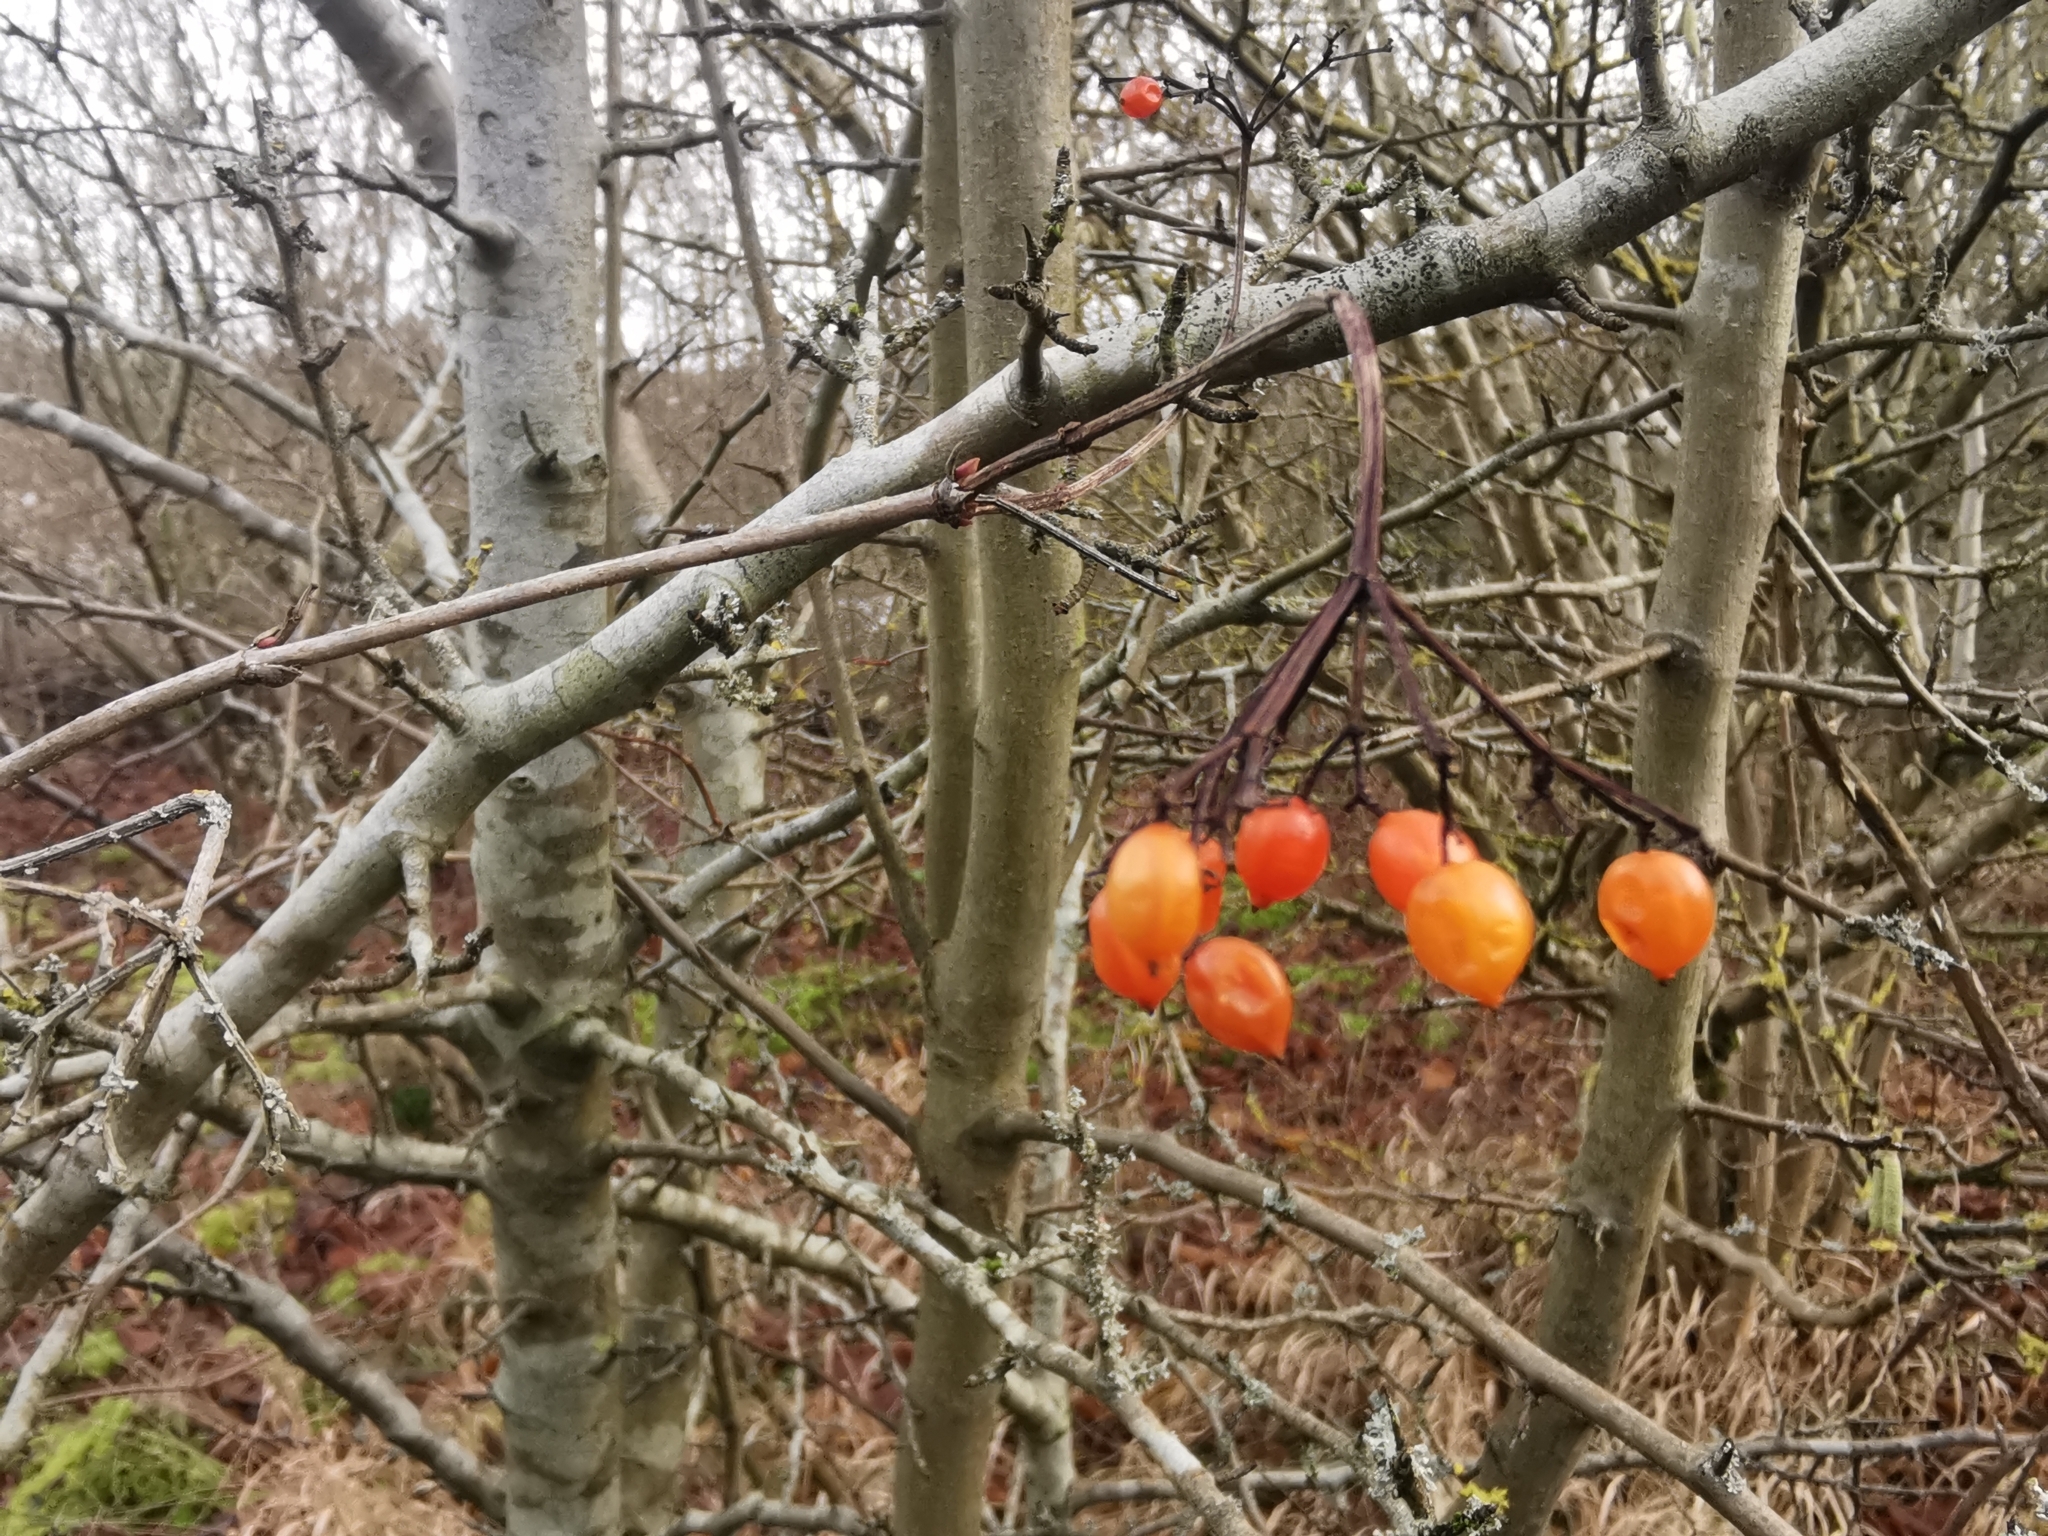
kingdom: Plantae
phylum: Tracheophyta
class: Magnoliopsida
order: Dipsacales
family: Viburnaceae
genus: Viburnum
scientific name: Viburnum opulus
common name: Guelder-rose
